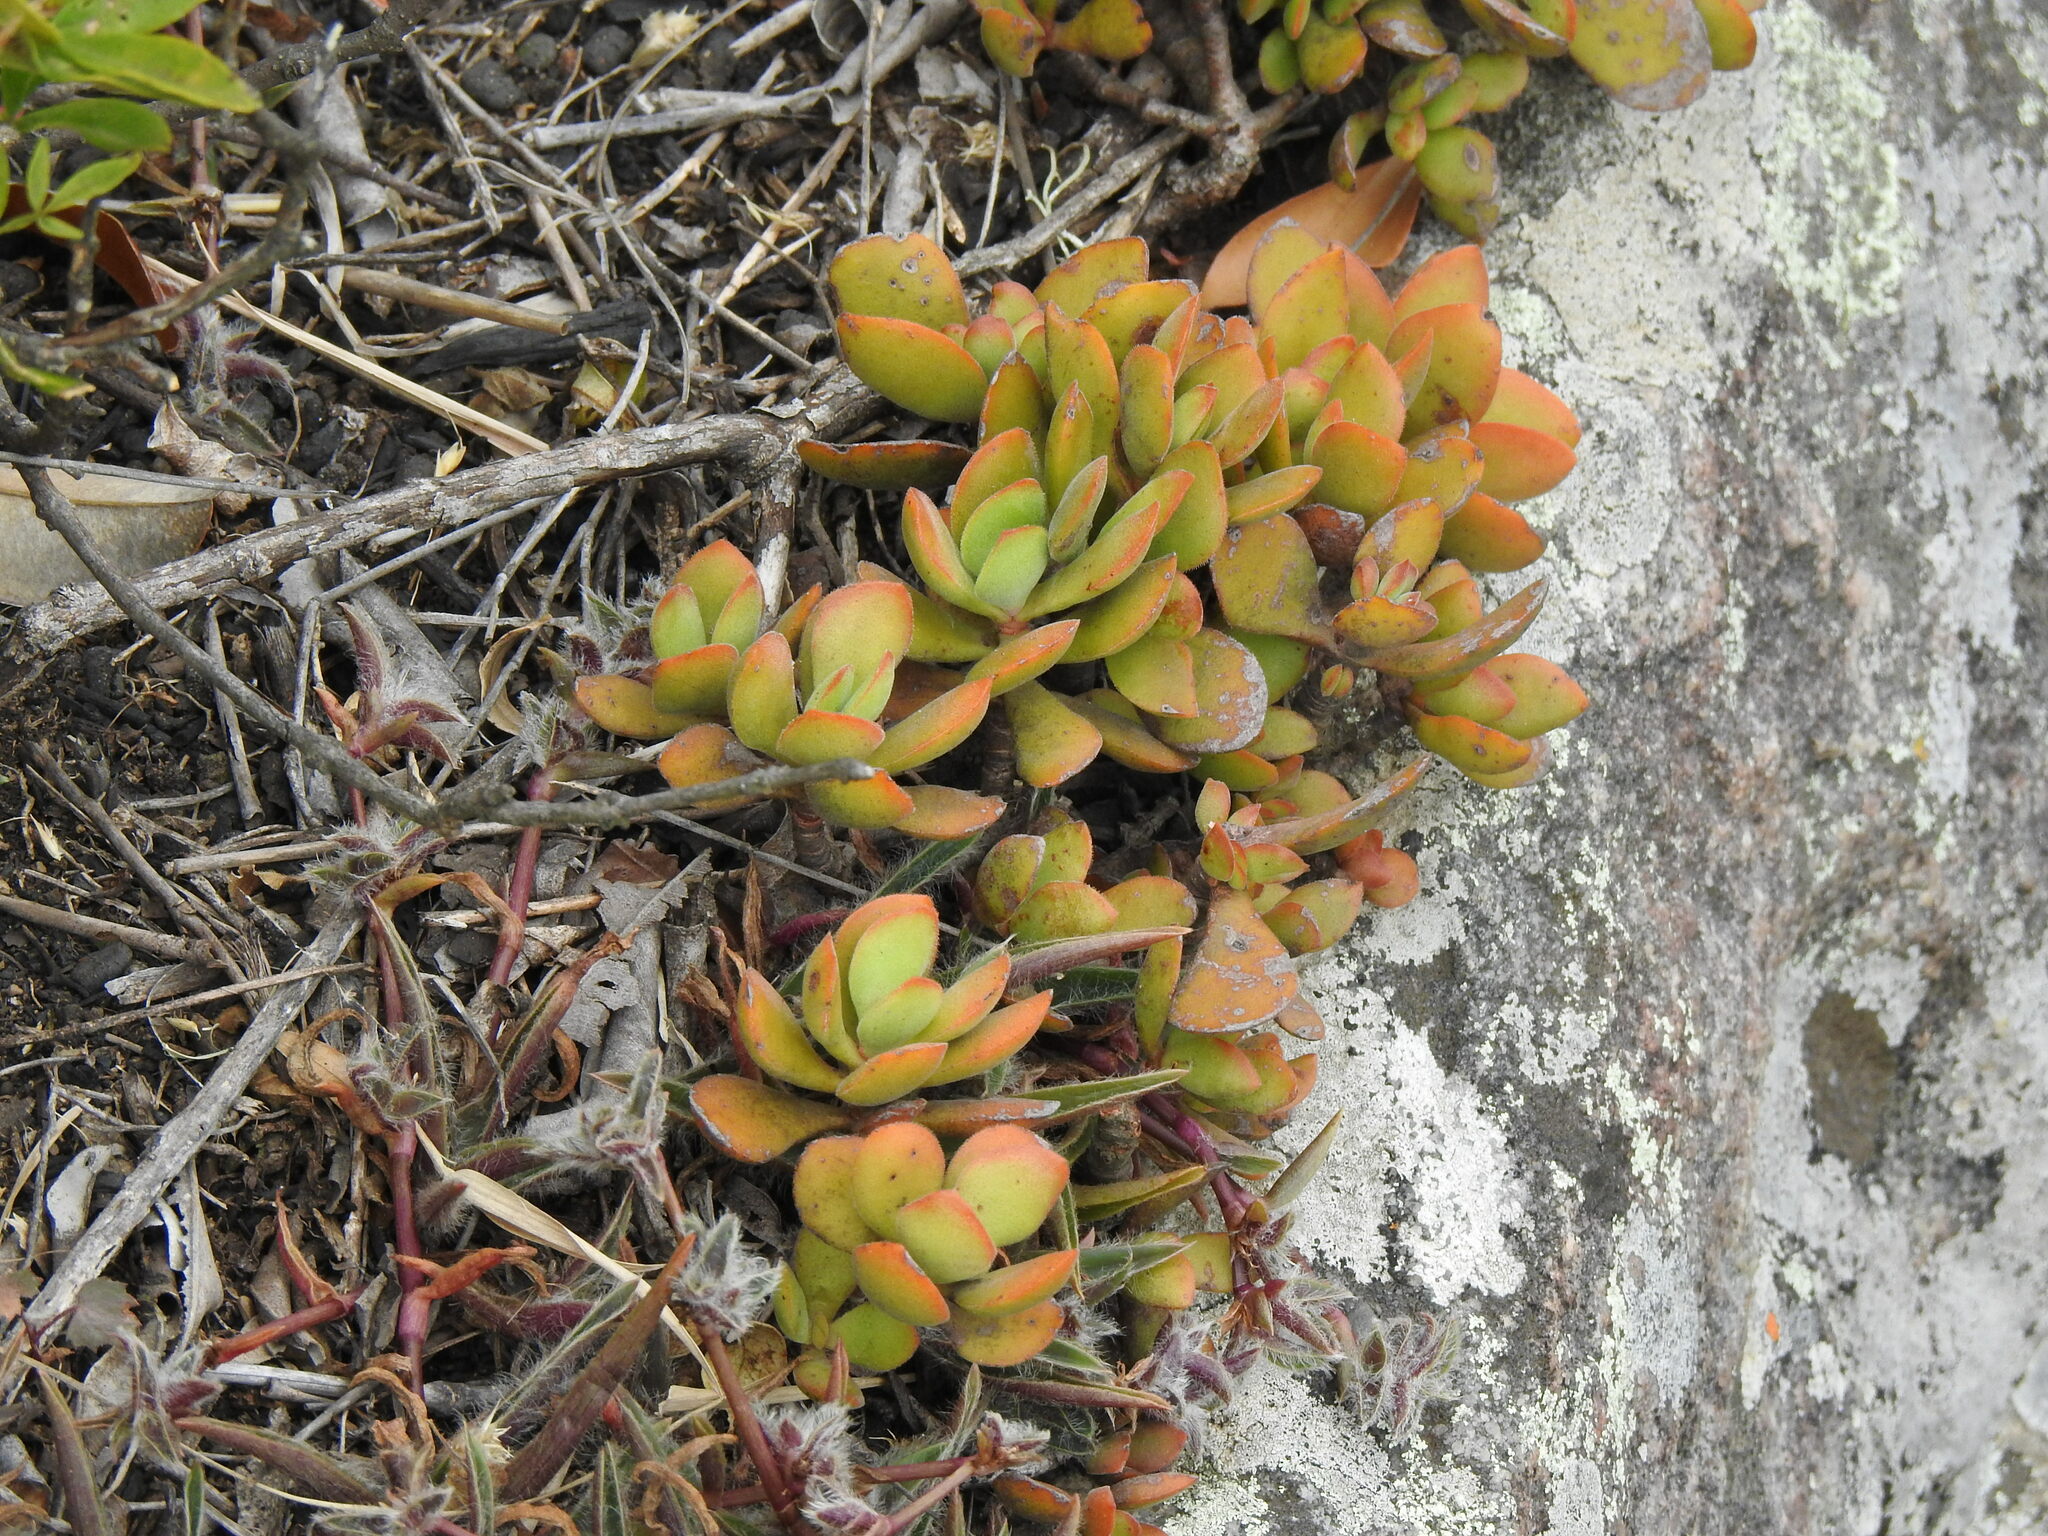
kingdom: Plantae
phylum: Tracheophyta
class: Magnoliopsida
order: Saxifragales
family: Crassulaceae
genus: Crassula
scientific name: Crassula globularioides
